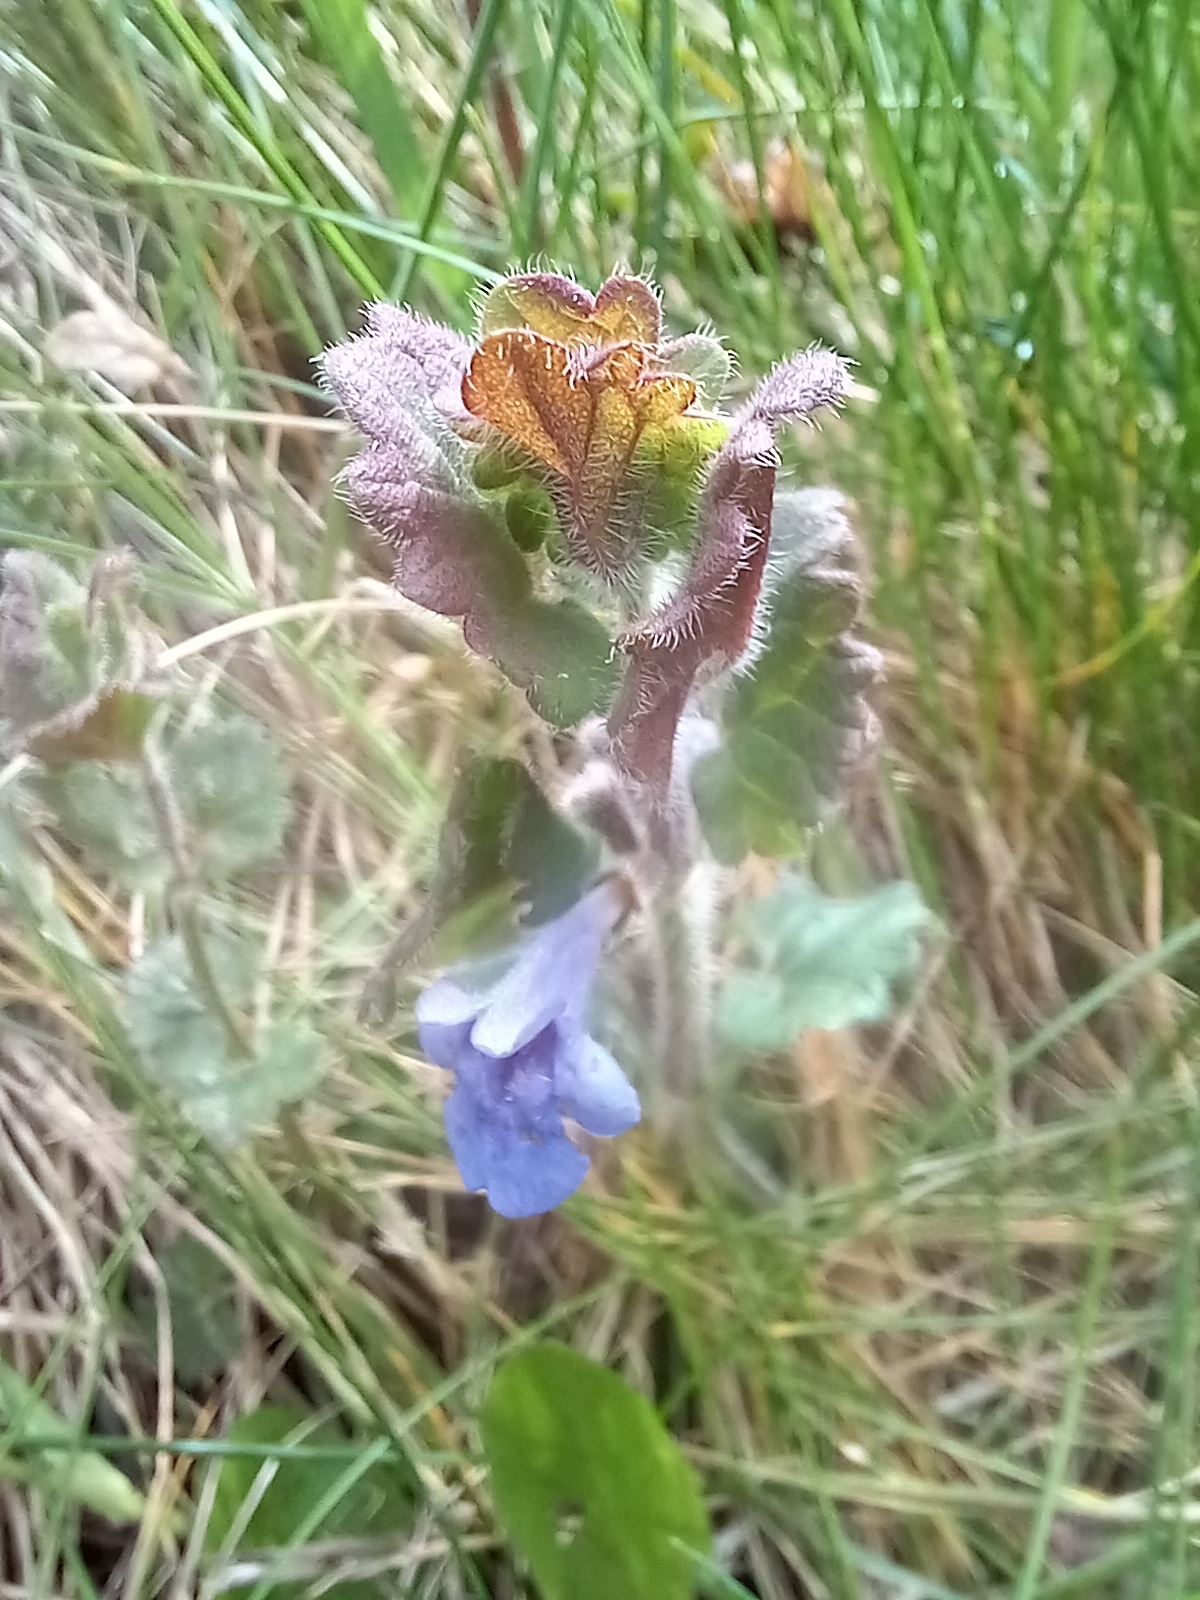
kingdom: Plantae
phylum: Tracheophyta
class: Magnoliopsida
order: Lamiales
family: Lamiaceae
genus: Glechoma
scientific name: Glechoma hederacea
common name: Ground ivy
